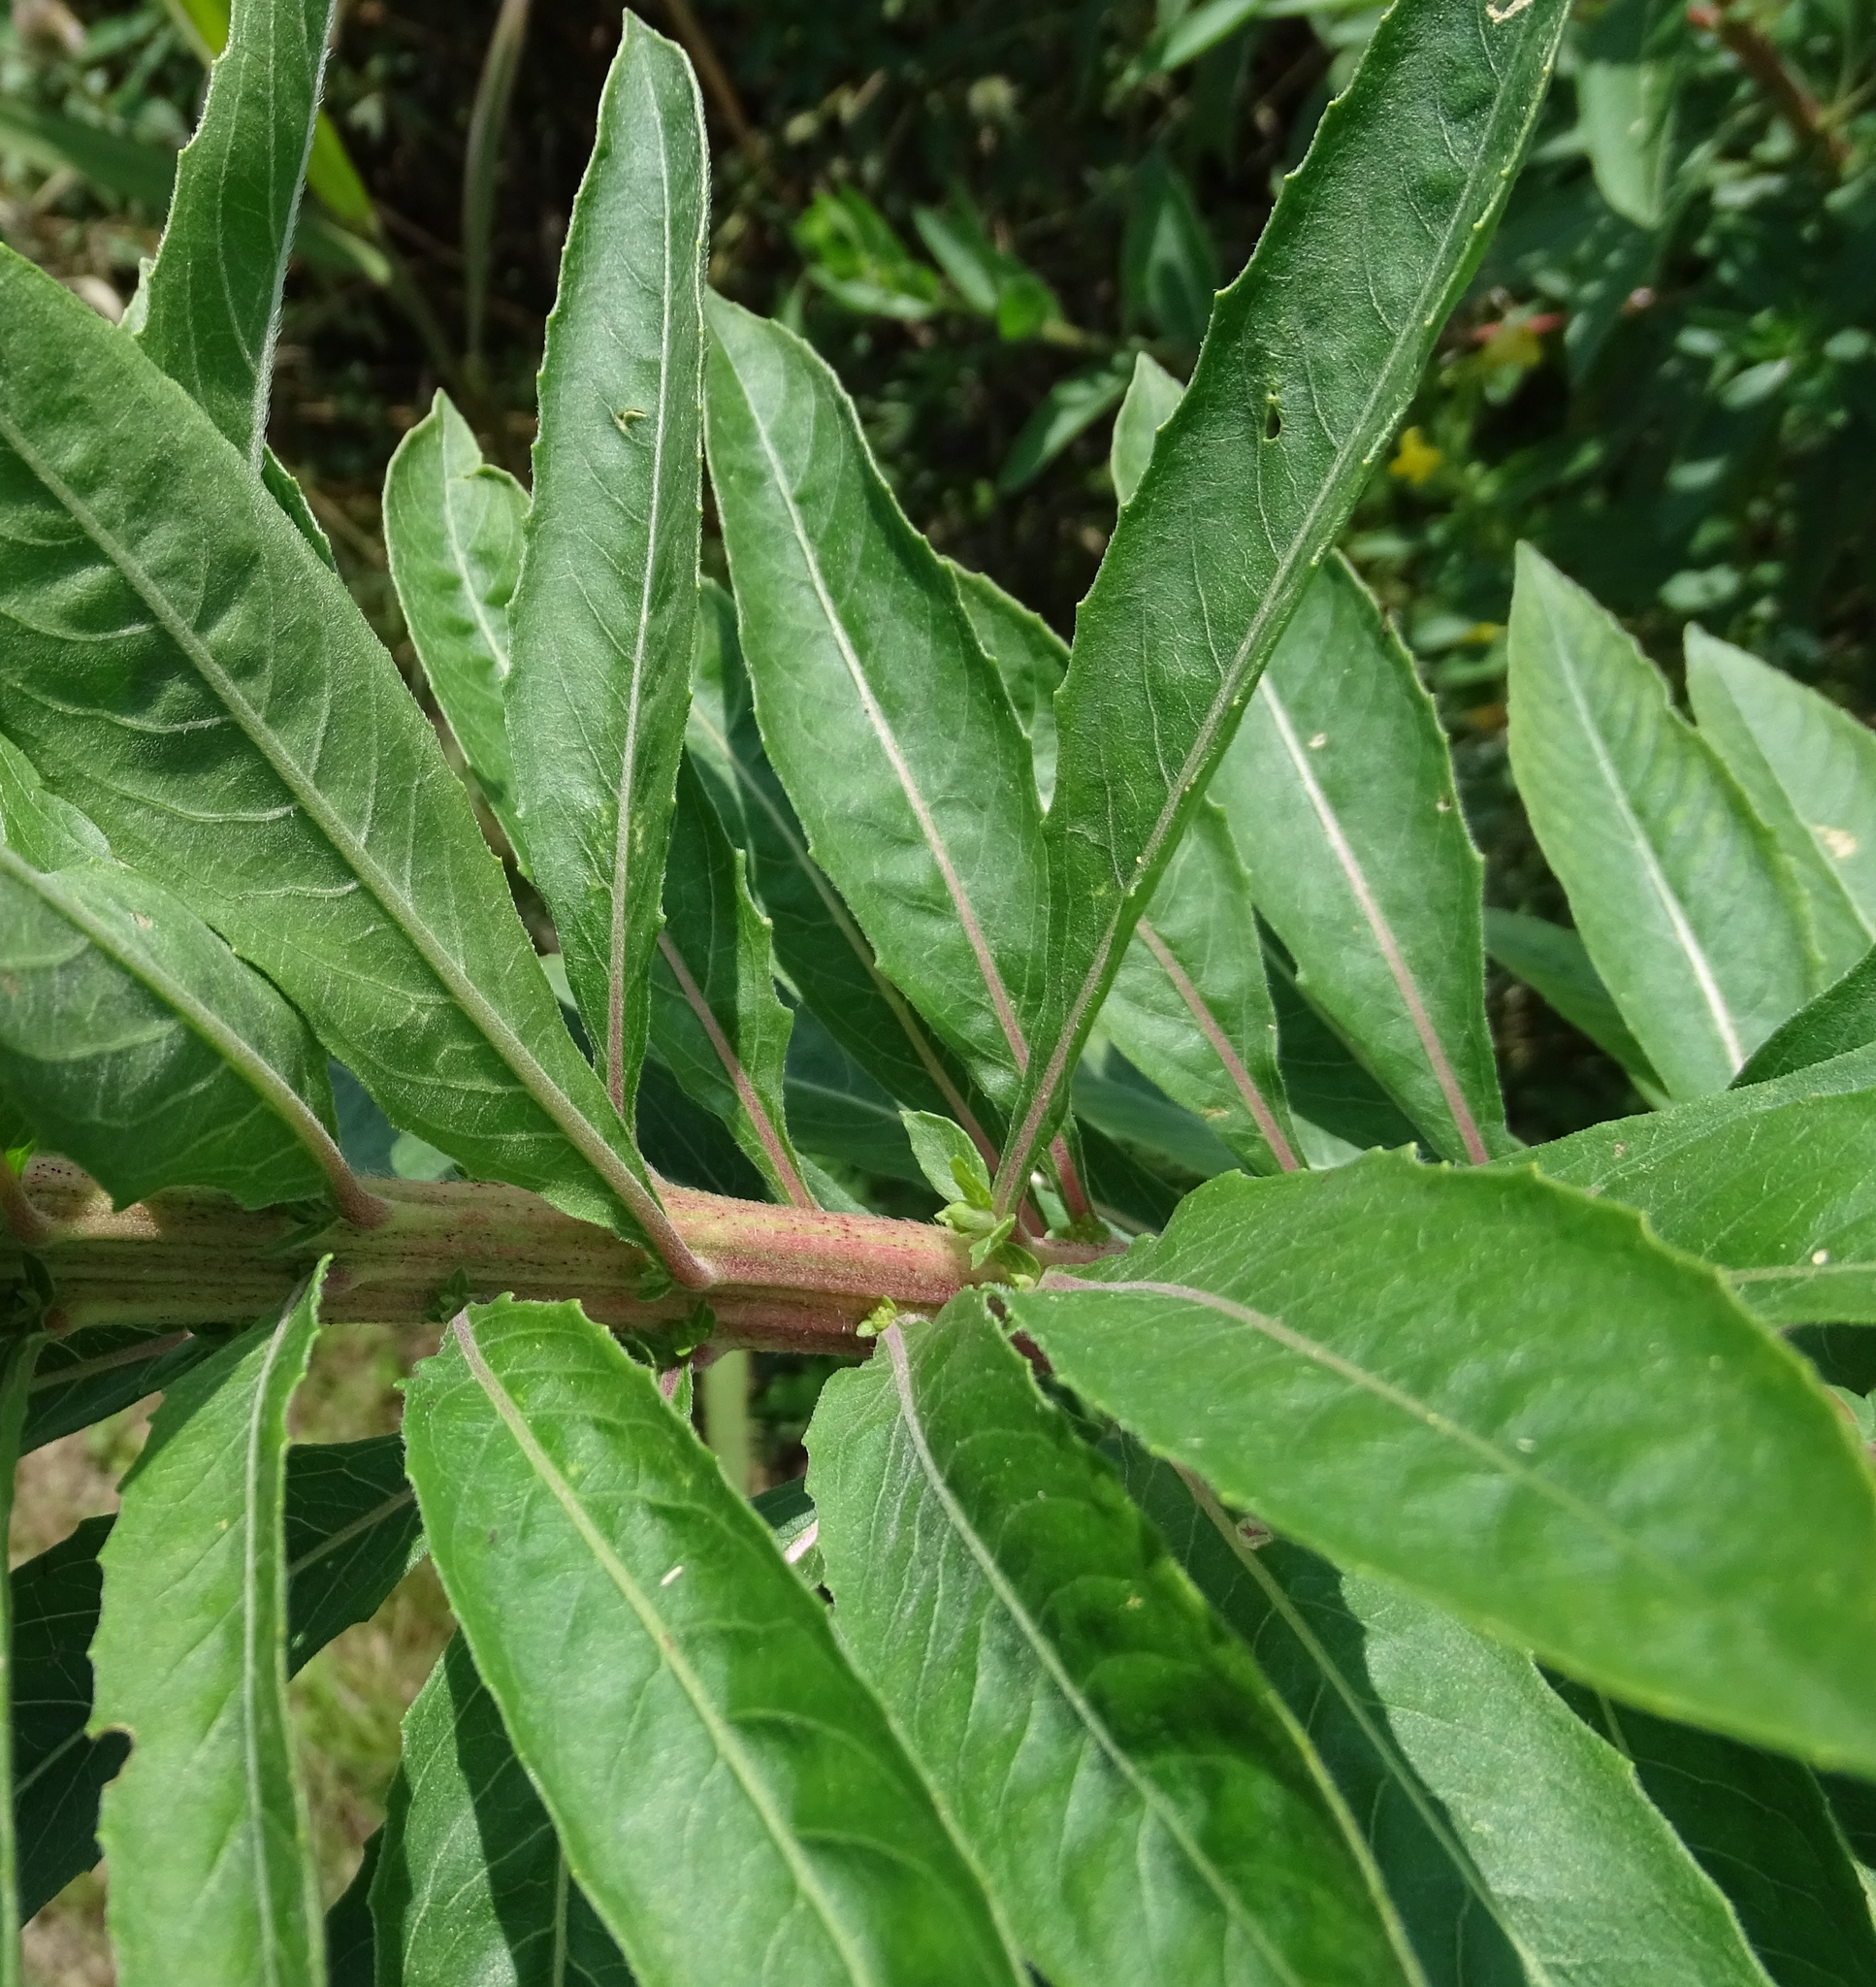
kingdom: Plantae
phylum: Tracheophyta
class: Magnoliopsida
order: Myrtales
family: Onagraceae
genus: Oenothera
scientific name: Oenothera biennis
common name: Common evening-primrose
